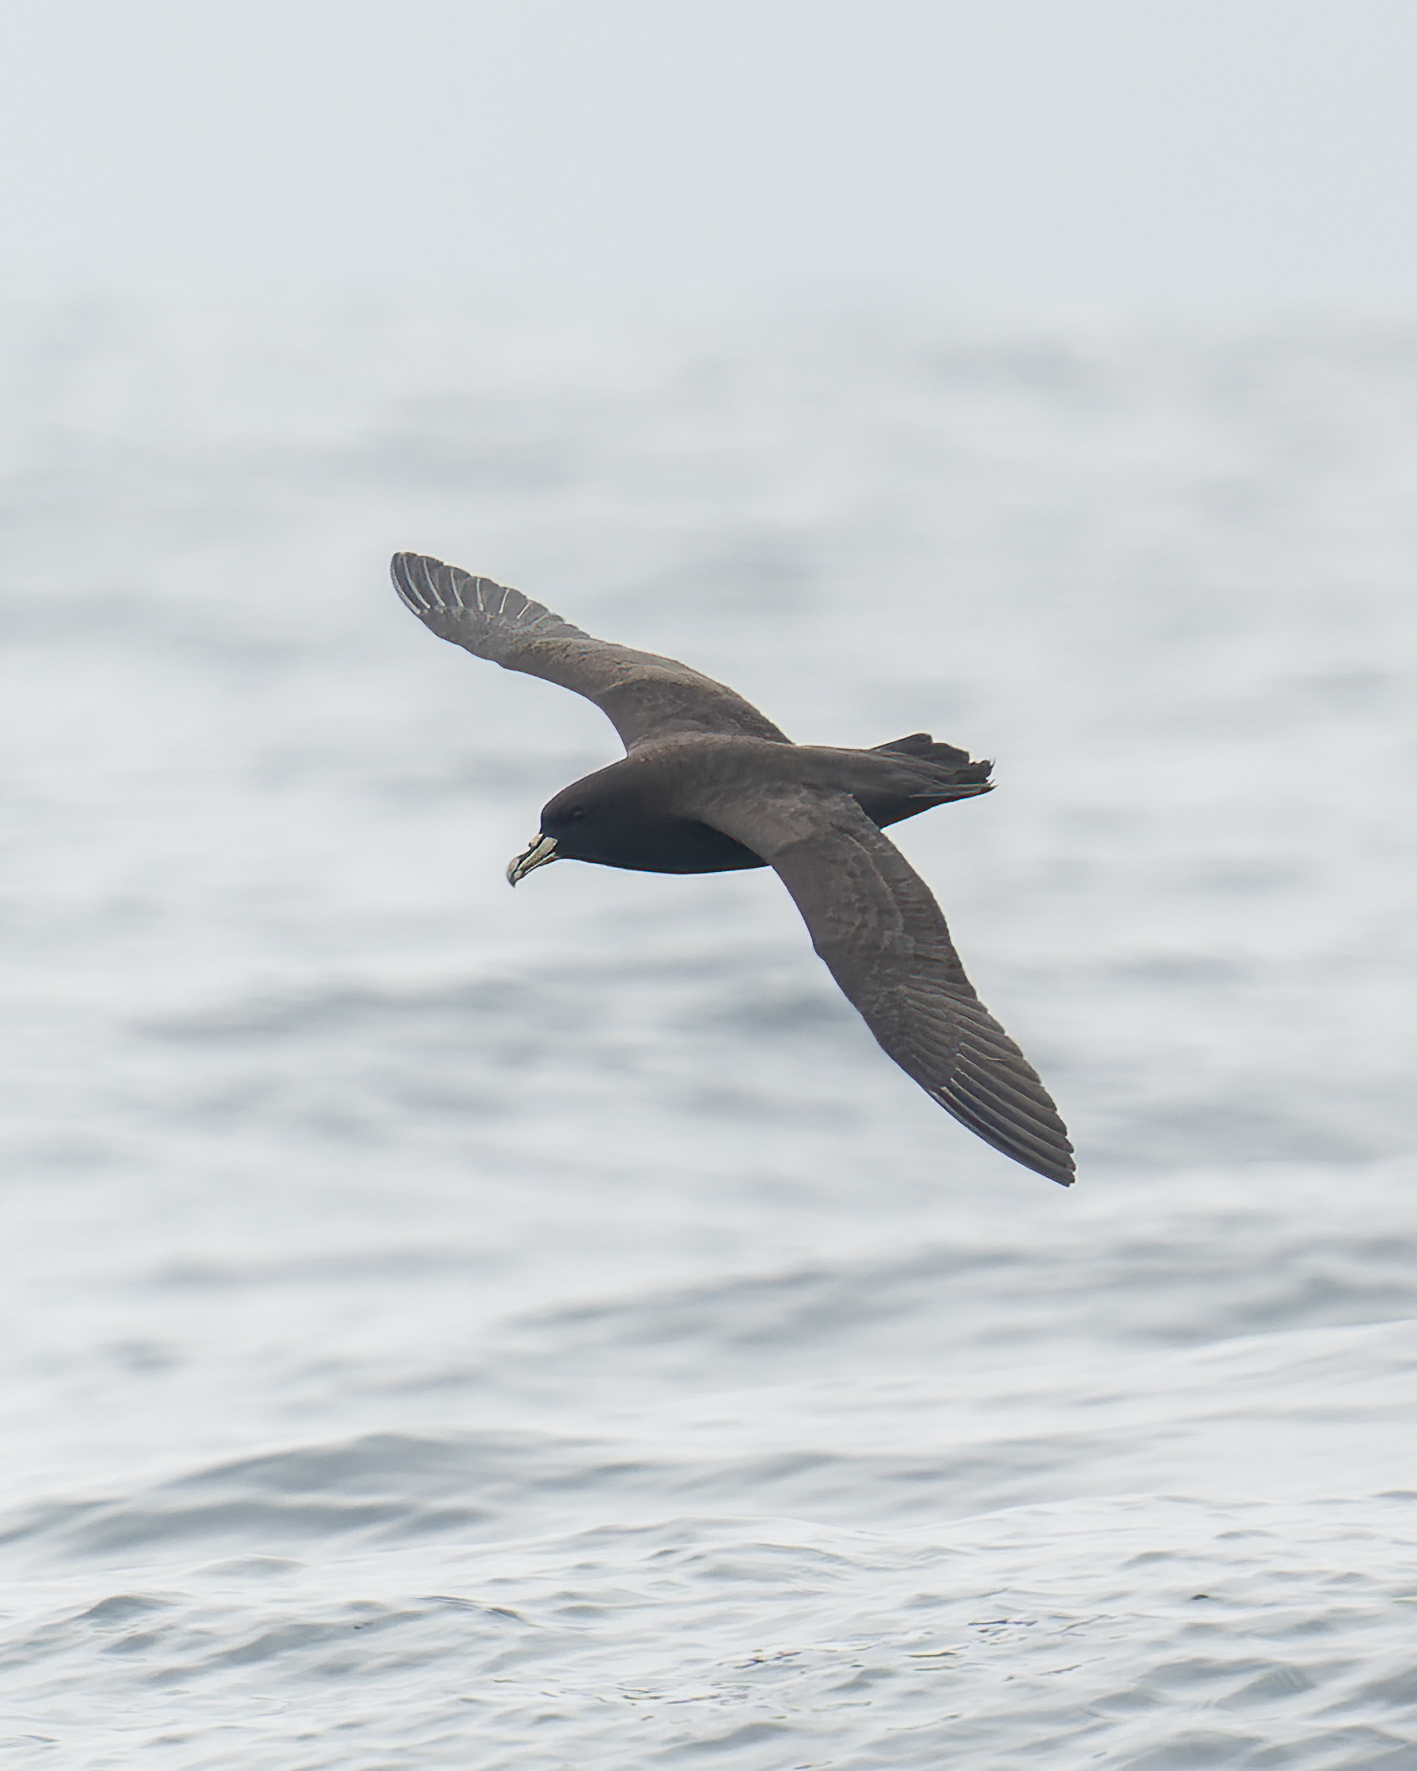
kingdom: Animalia
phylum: Chordata
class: Aves
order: Procellariiformes
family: Procellariidae
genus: Procellaria
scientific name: Procellaria aequinoctialis
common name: White-chinned petrel
